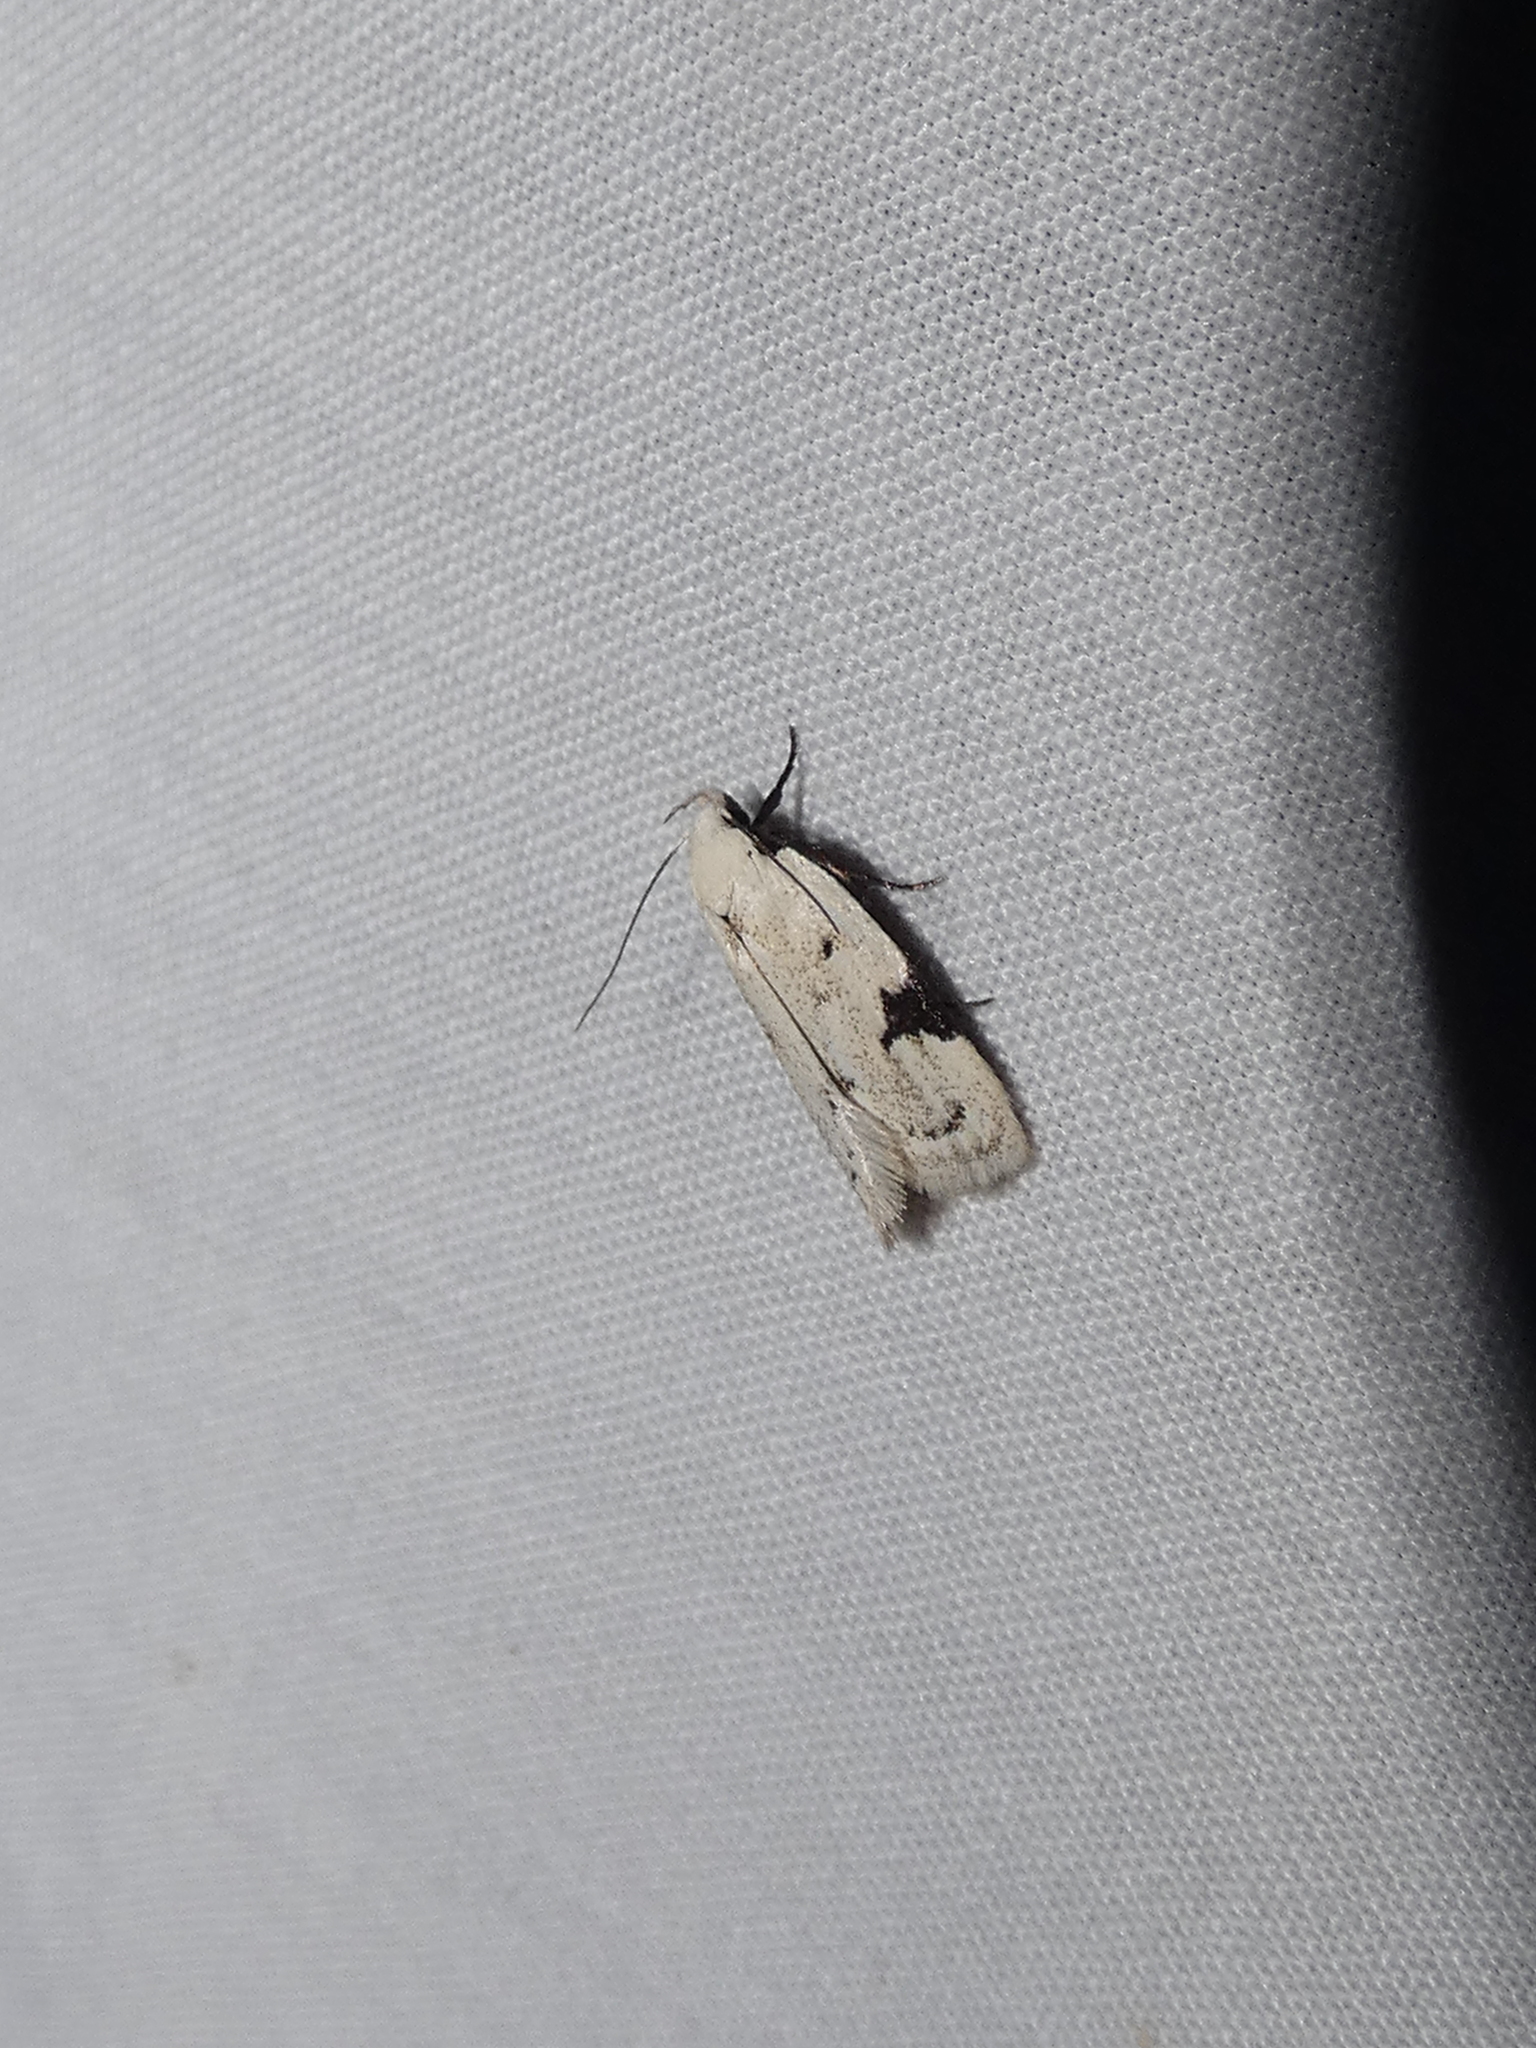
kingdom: Animalia
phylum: Arthropoda
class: Insecta
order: Lepidoptera
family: Oecophoridae
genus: Inga
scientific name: Inga sparsiciliella
